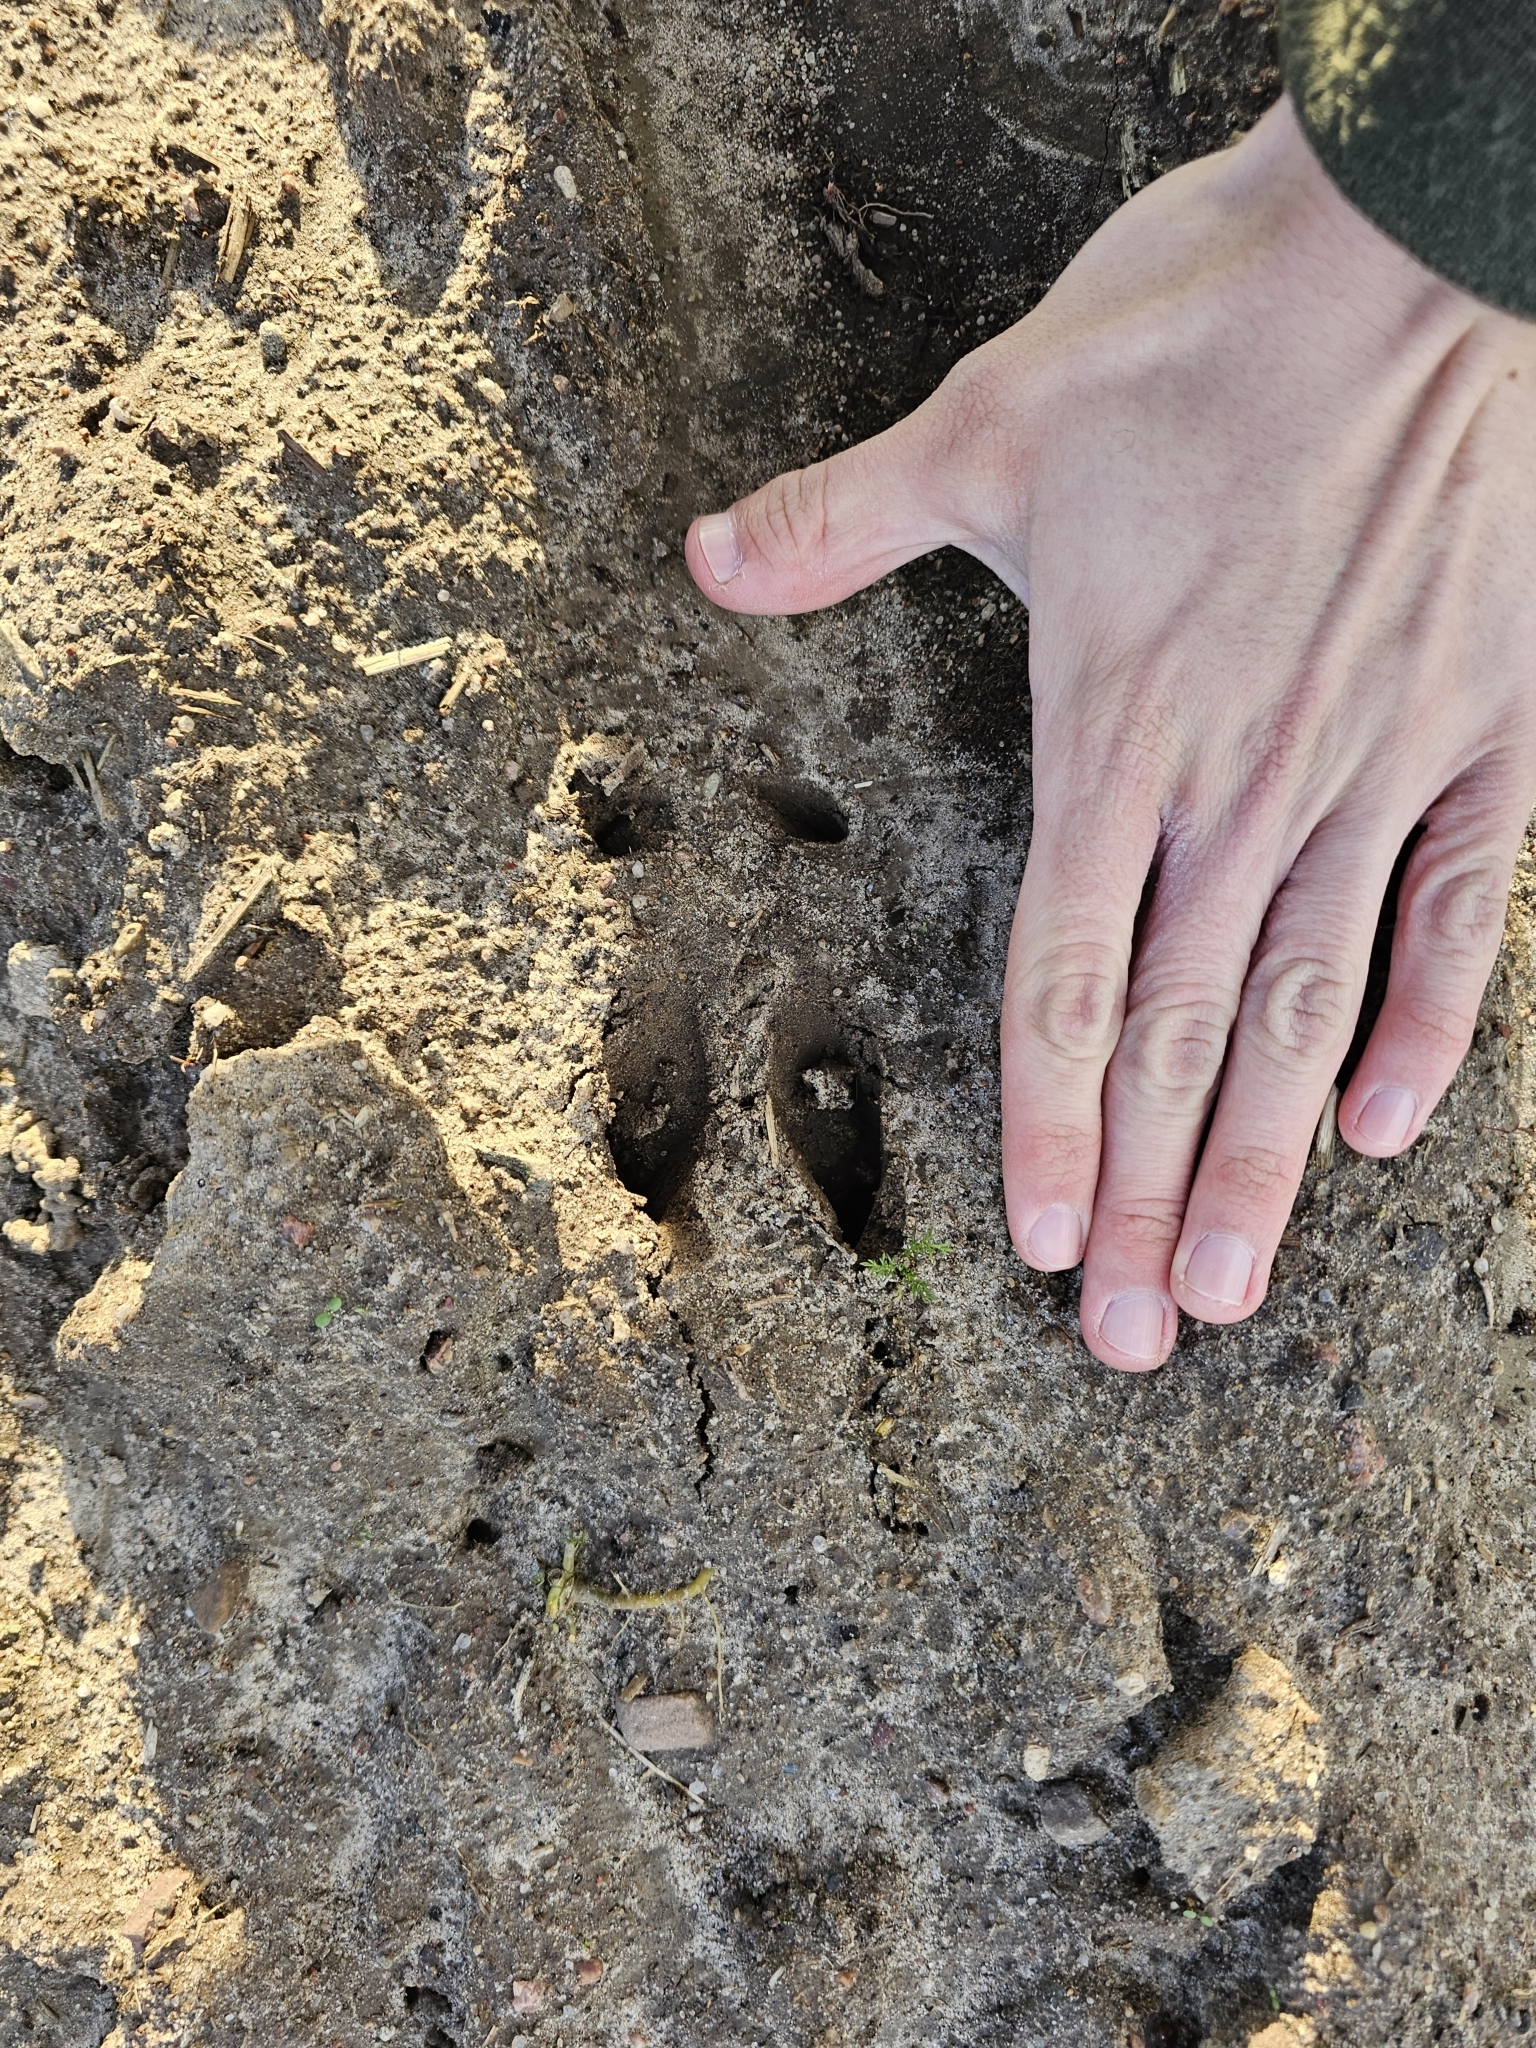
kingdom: Animalia
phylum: Chordata
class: Mammalia
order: Artiodactyla
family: Cervidae
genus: Capreolus
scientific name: Capreolus capreolus
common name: Western roe deer
